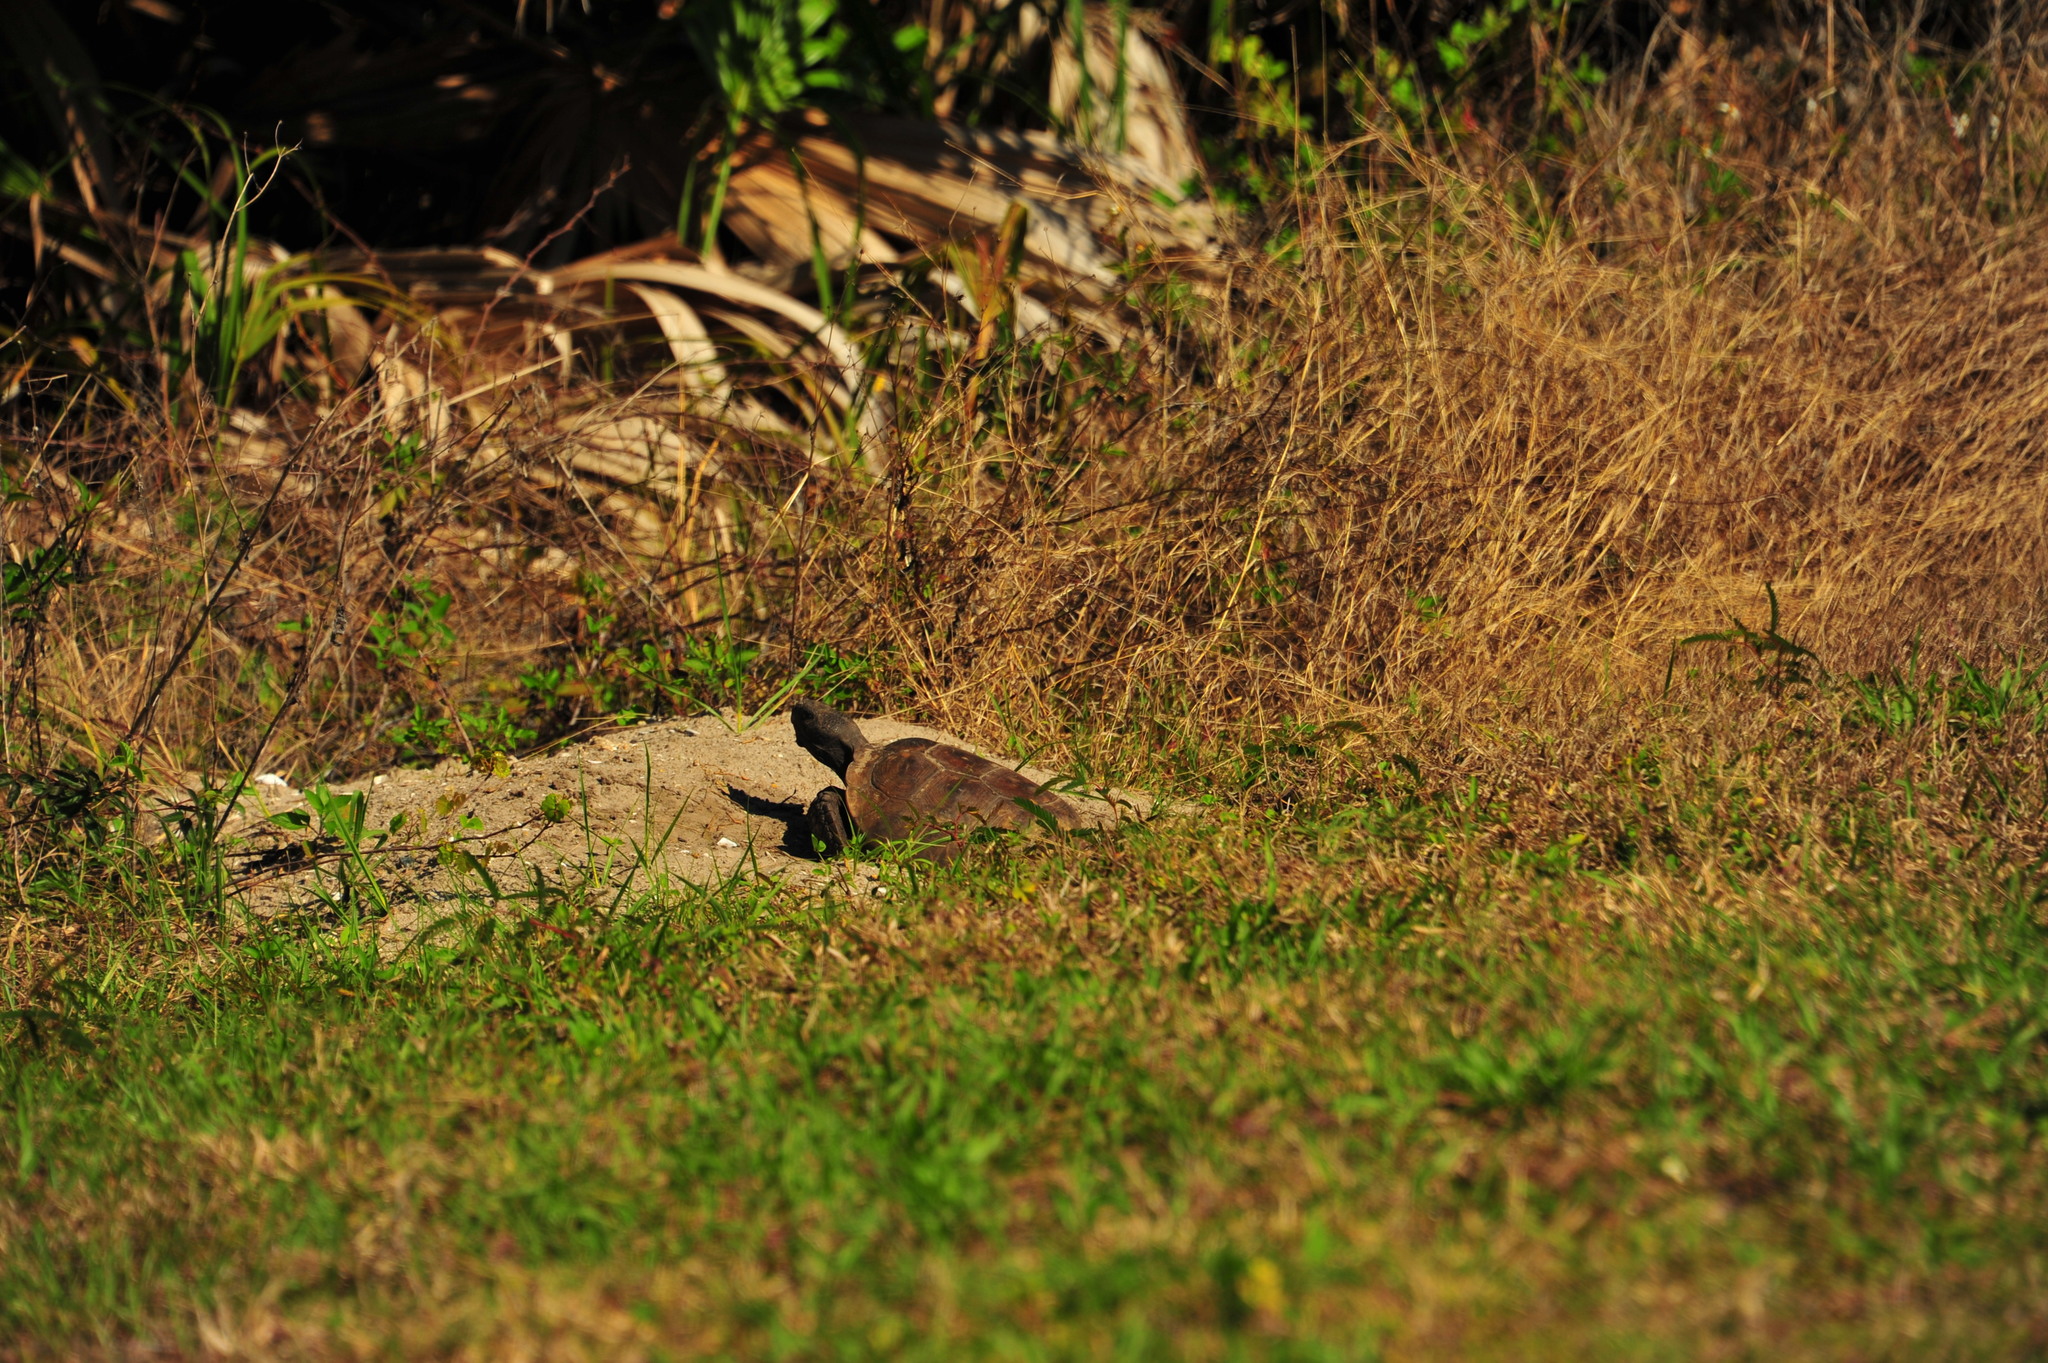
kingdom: Animalia
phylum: Chordata
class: Testudines
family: Testudinidae
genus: Gopherus
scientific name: Gopherus polyphemus
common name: Florida gopher tortoise
